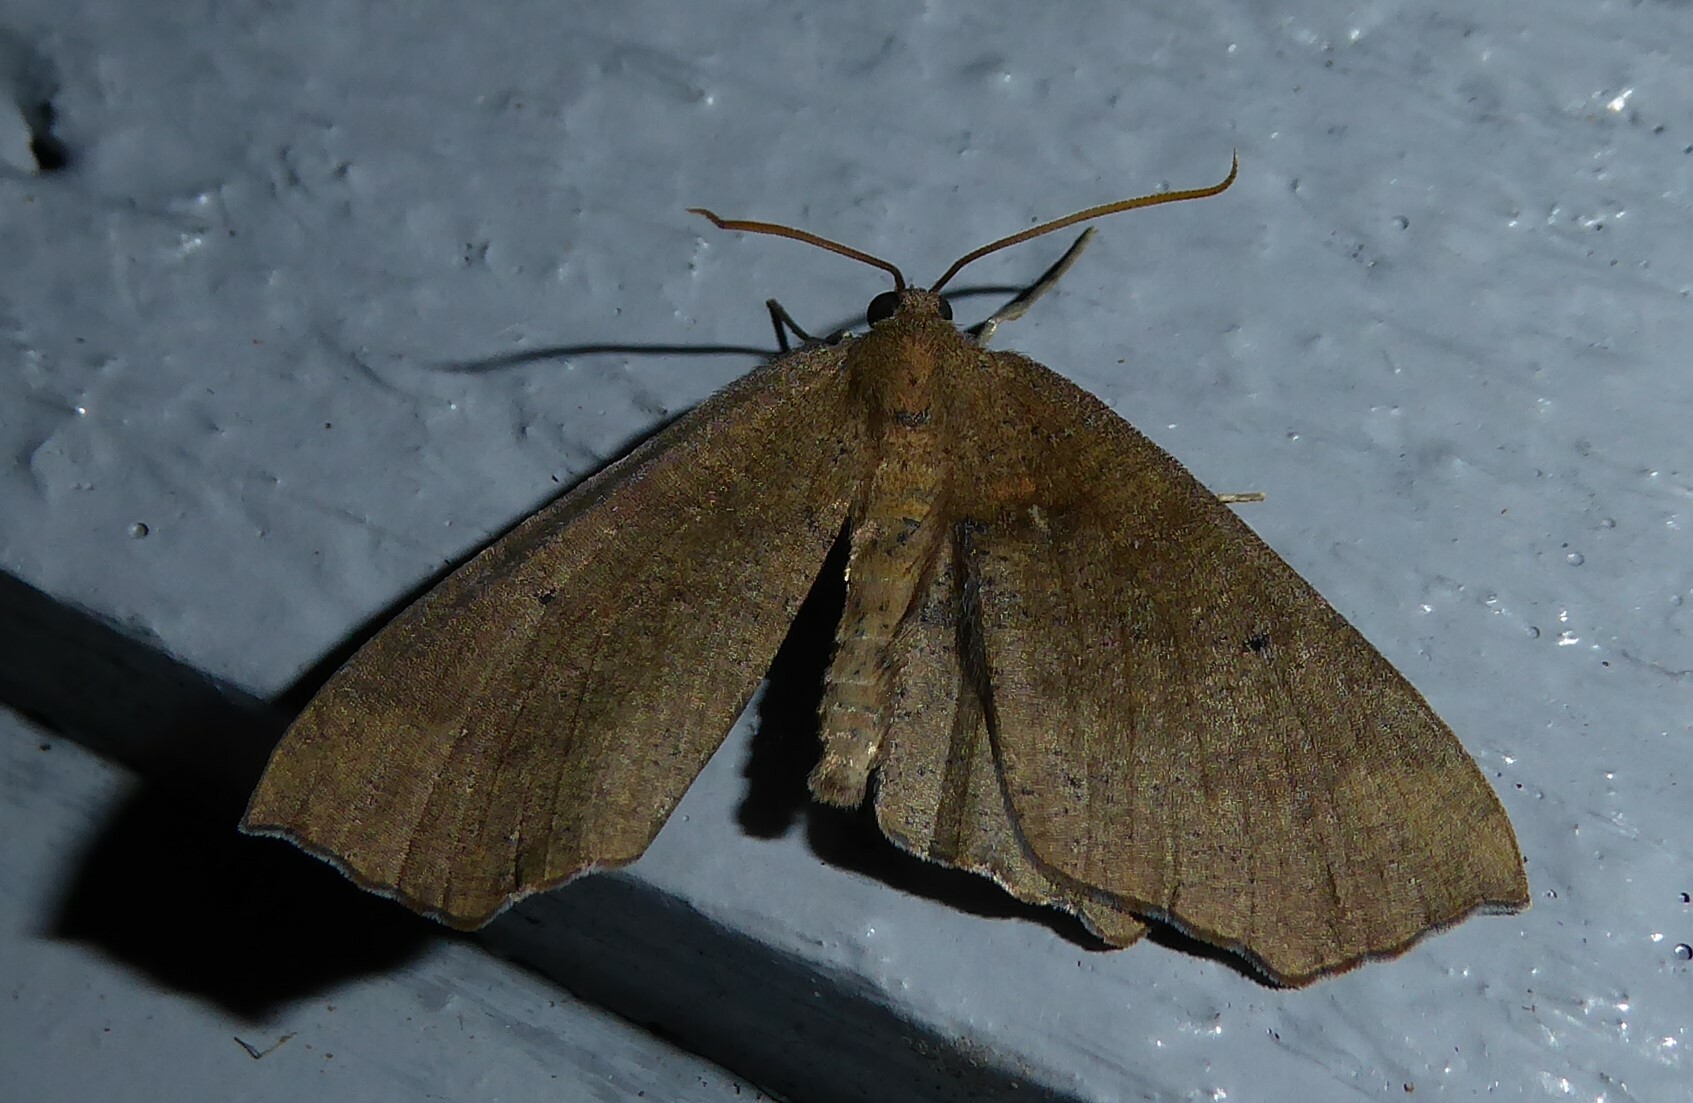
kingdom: Animalia
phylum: Arthropoda
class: Insecta
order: Lepidoptera
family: Geometridae
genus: Xyridacma
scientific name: Xyridacma ustaria
